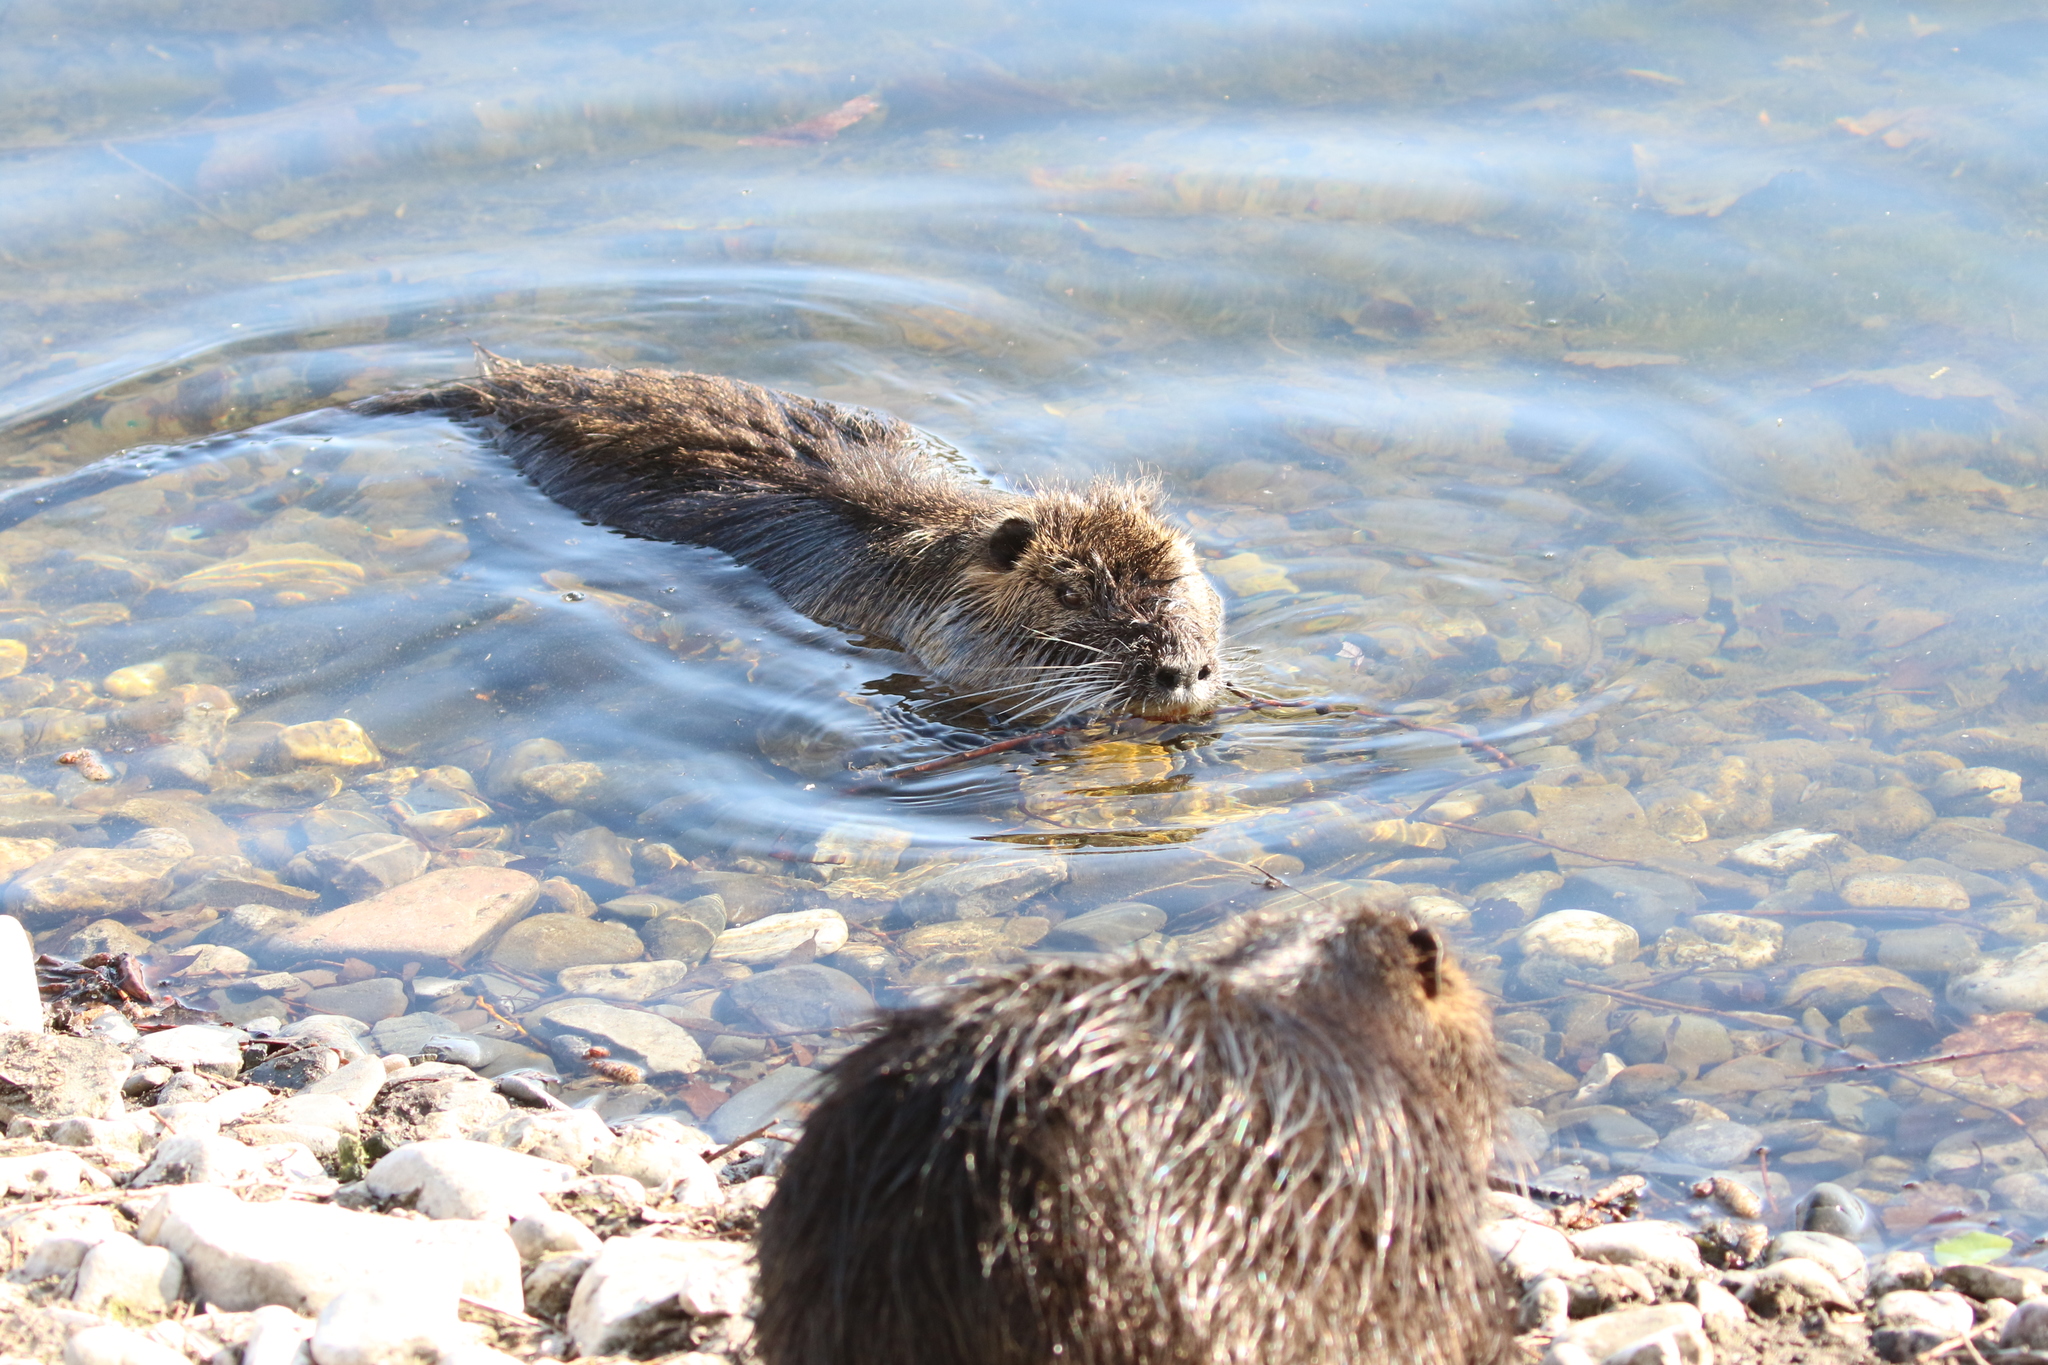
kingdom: Animalia
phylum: Chordata
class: Mammalia
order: Rodentia
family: Myocastoridae
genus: Myocastor
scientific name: Myocastor coypus
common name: Coypu
